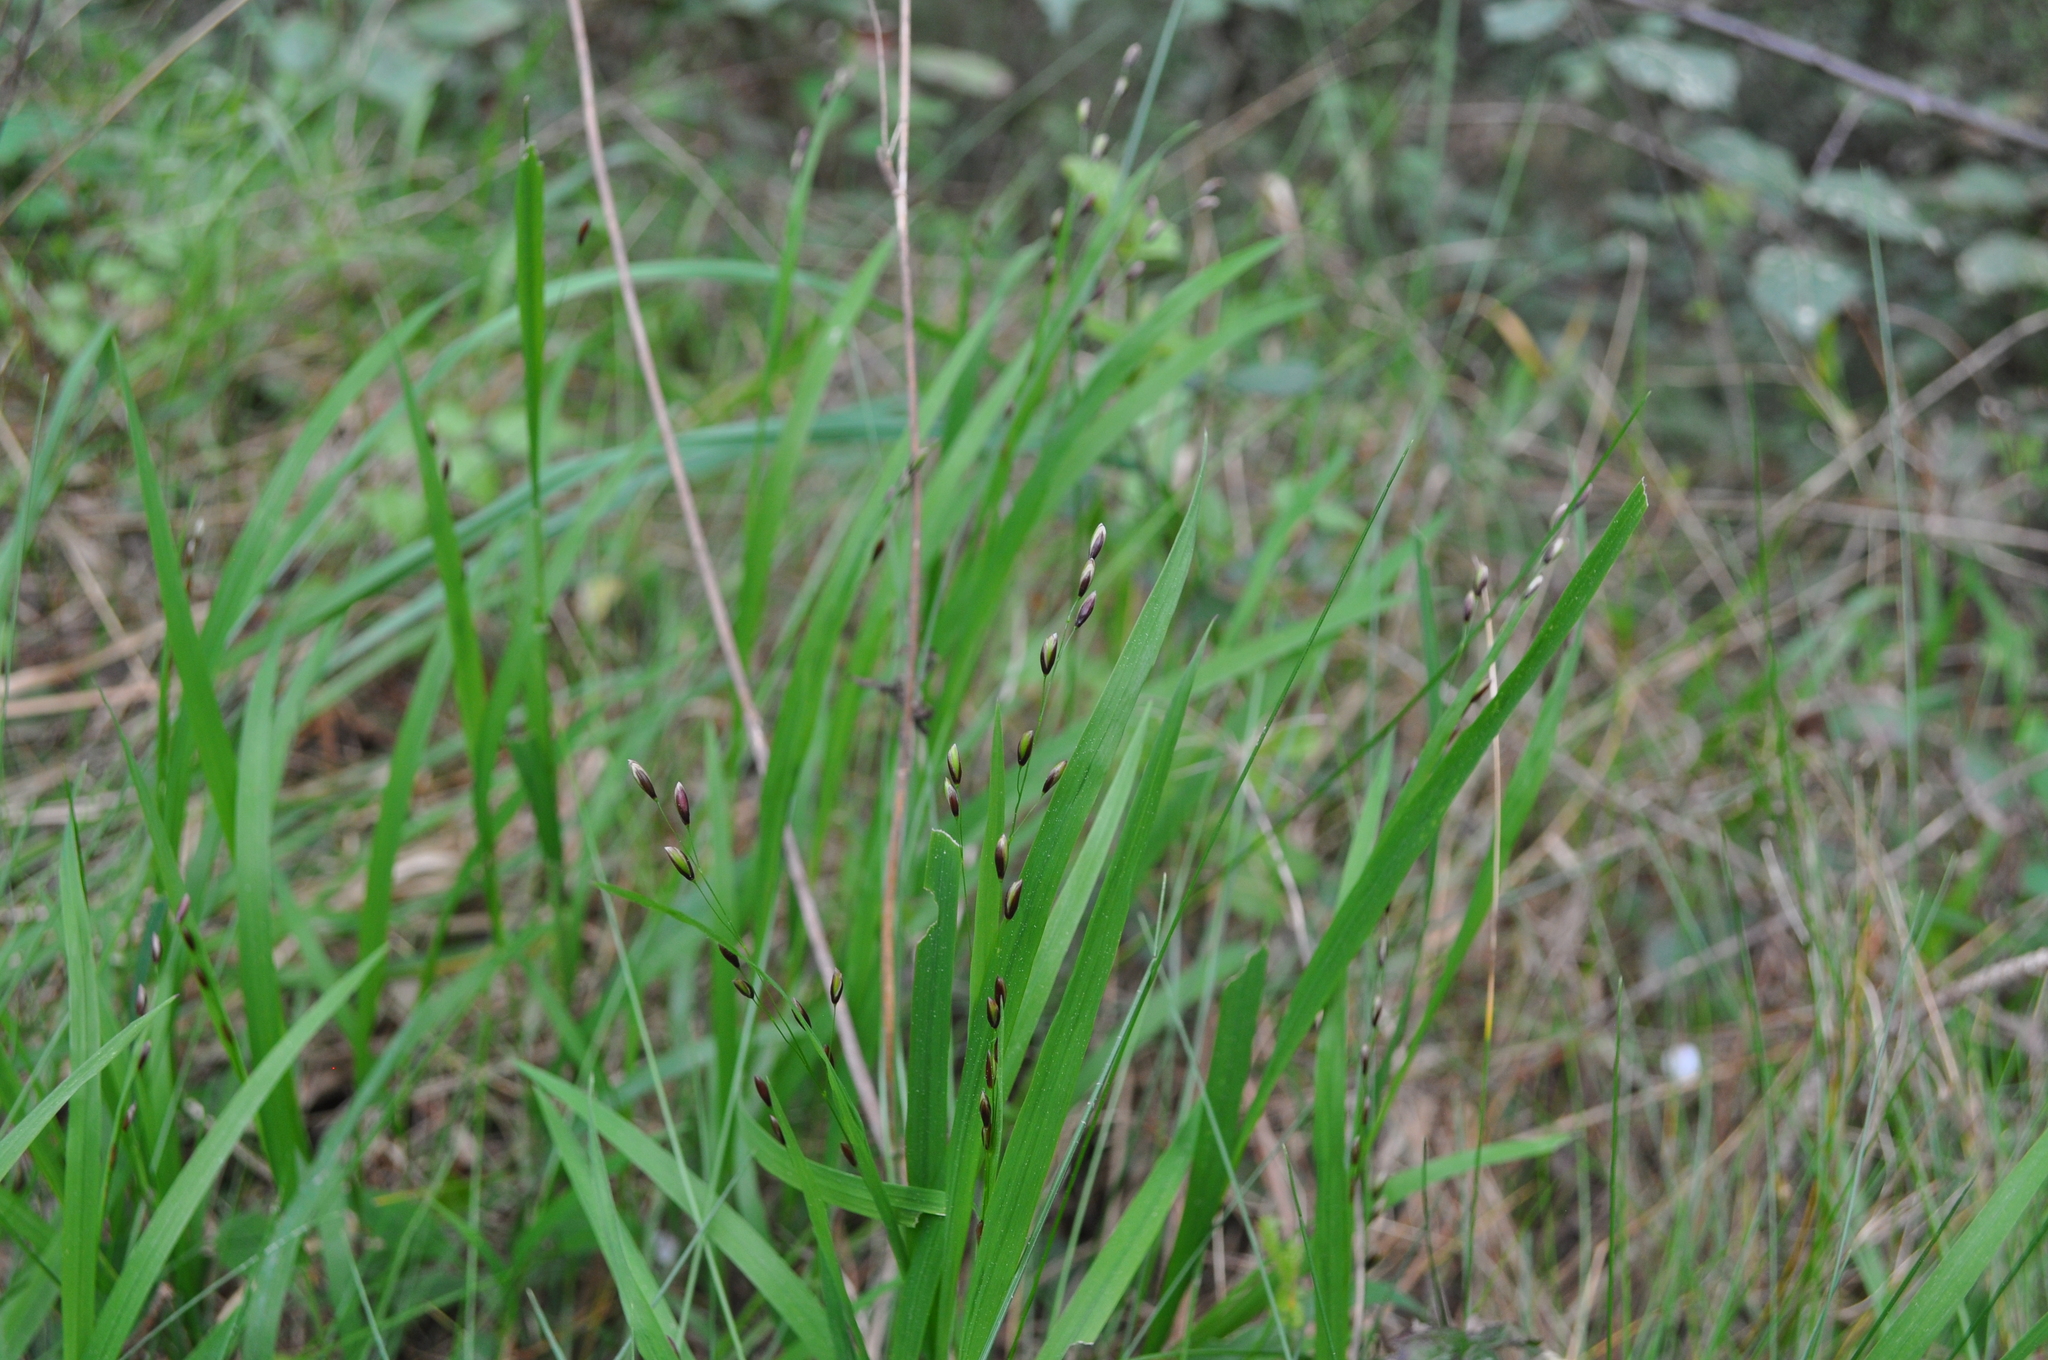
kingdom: Plantae
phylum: Tracheophyta
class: Liliopsida
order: Poales
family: Poaceae
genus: Melica
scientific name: Melica uniflora
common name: Wood melick
